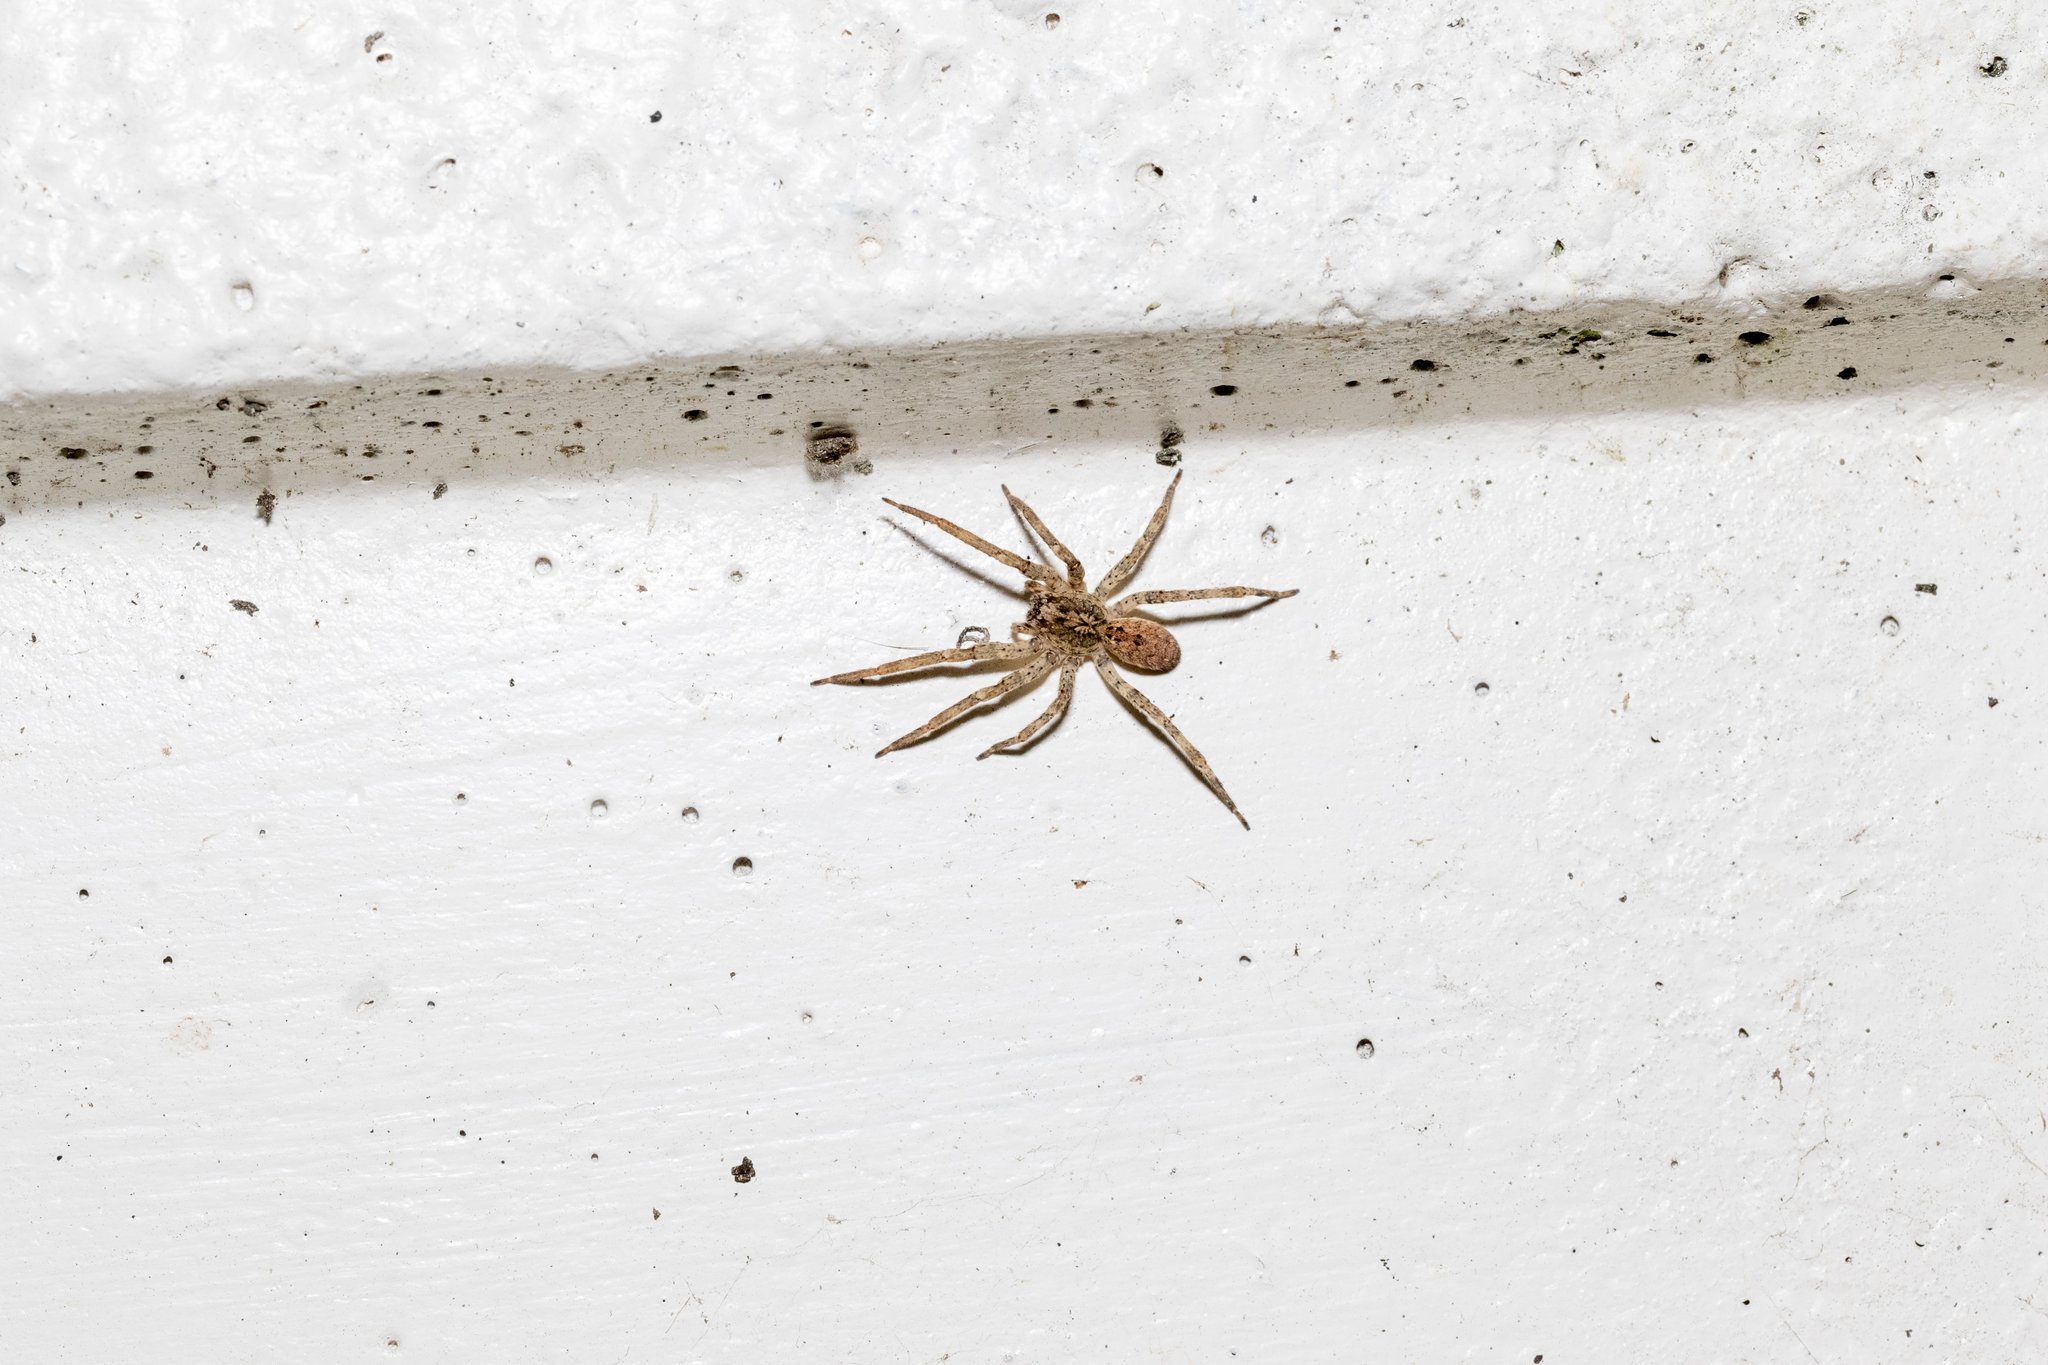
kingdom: Animalia
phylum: Arthropoda
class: Arachnida
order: Araneae
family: Zoropsidae
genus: Zoropsis
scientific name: Zoropsis spinimana
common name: Zoropsid spider
